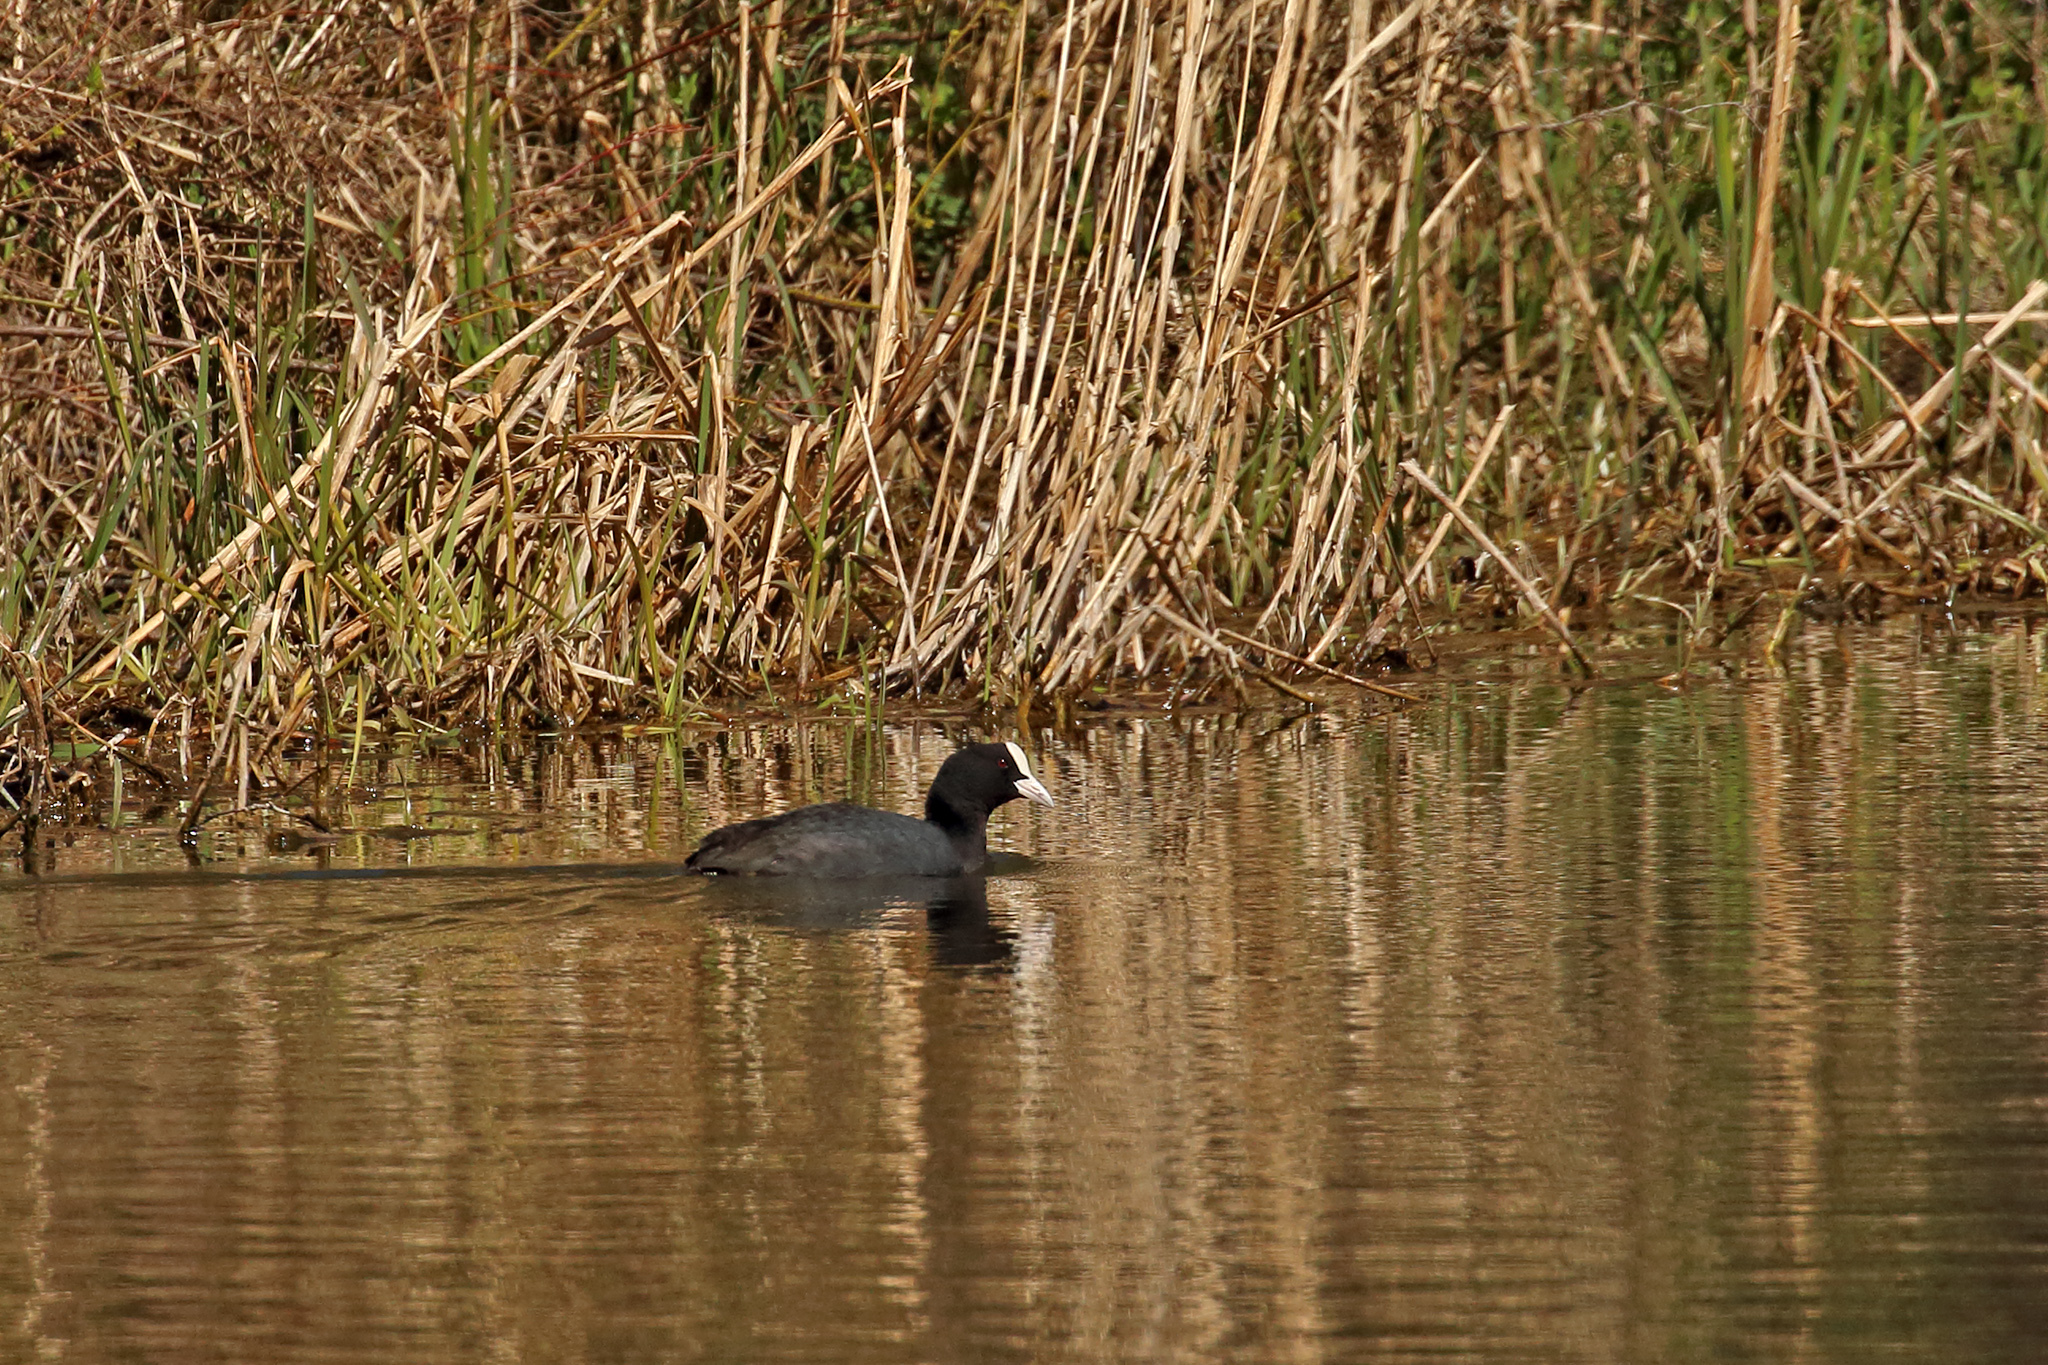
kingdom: Animalia
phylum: Chordata
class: Aves
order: Gruiformes
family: Rallidae
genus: Fulica
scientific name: Fulica atra
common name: Eurasian coot
